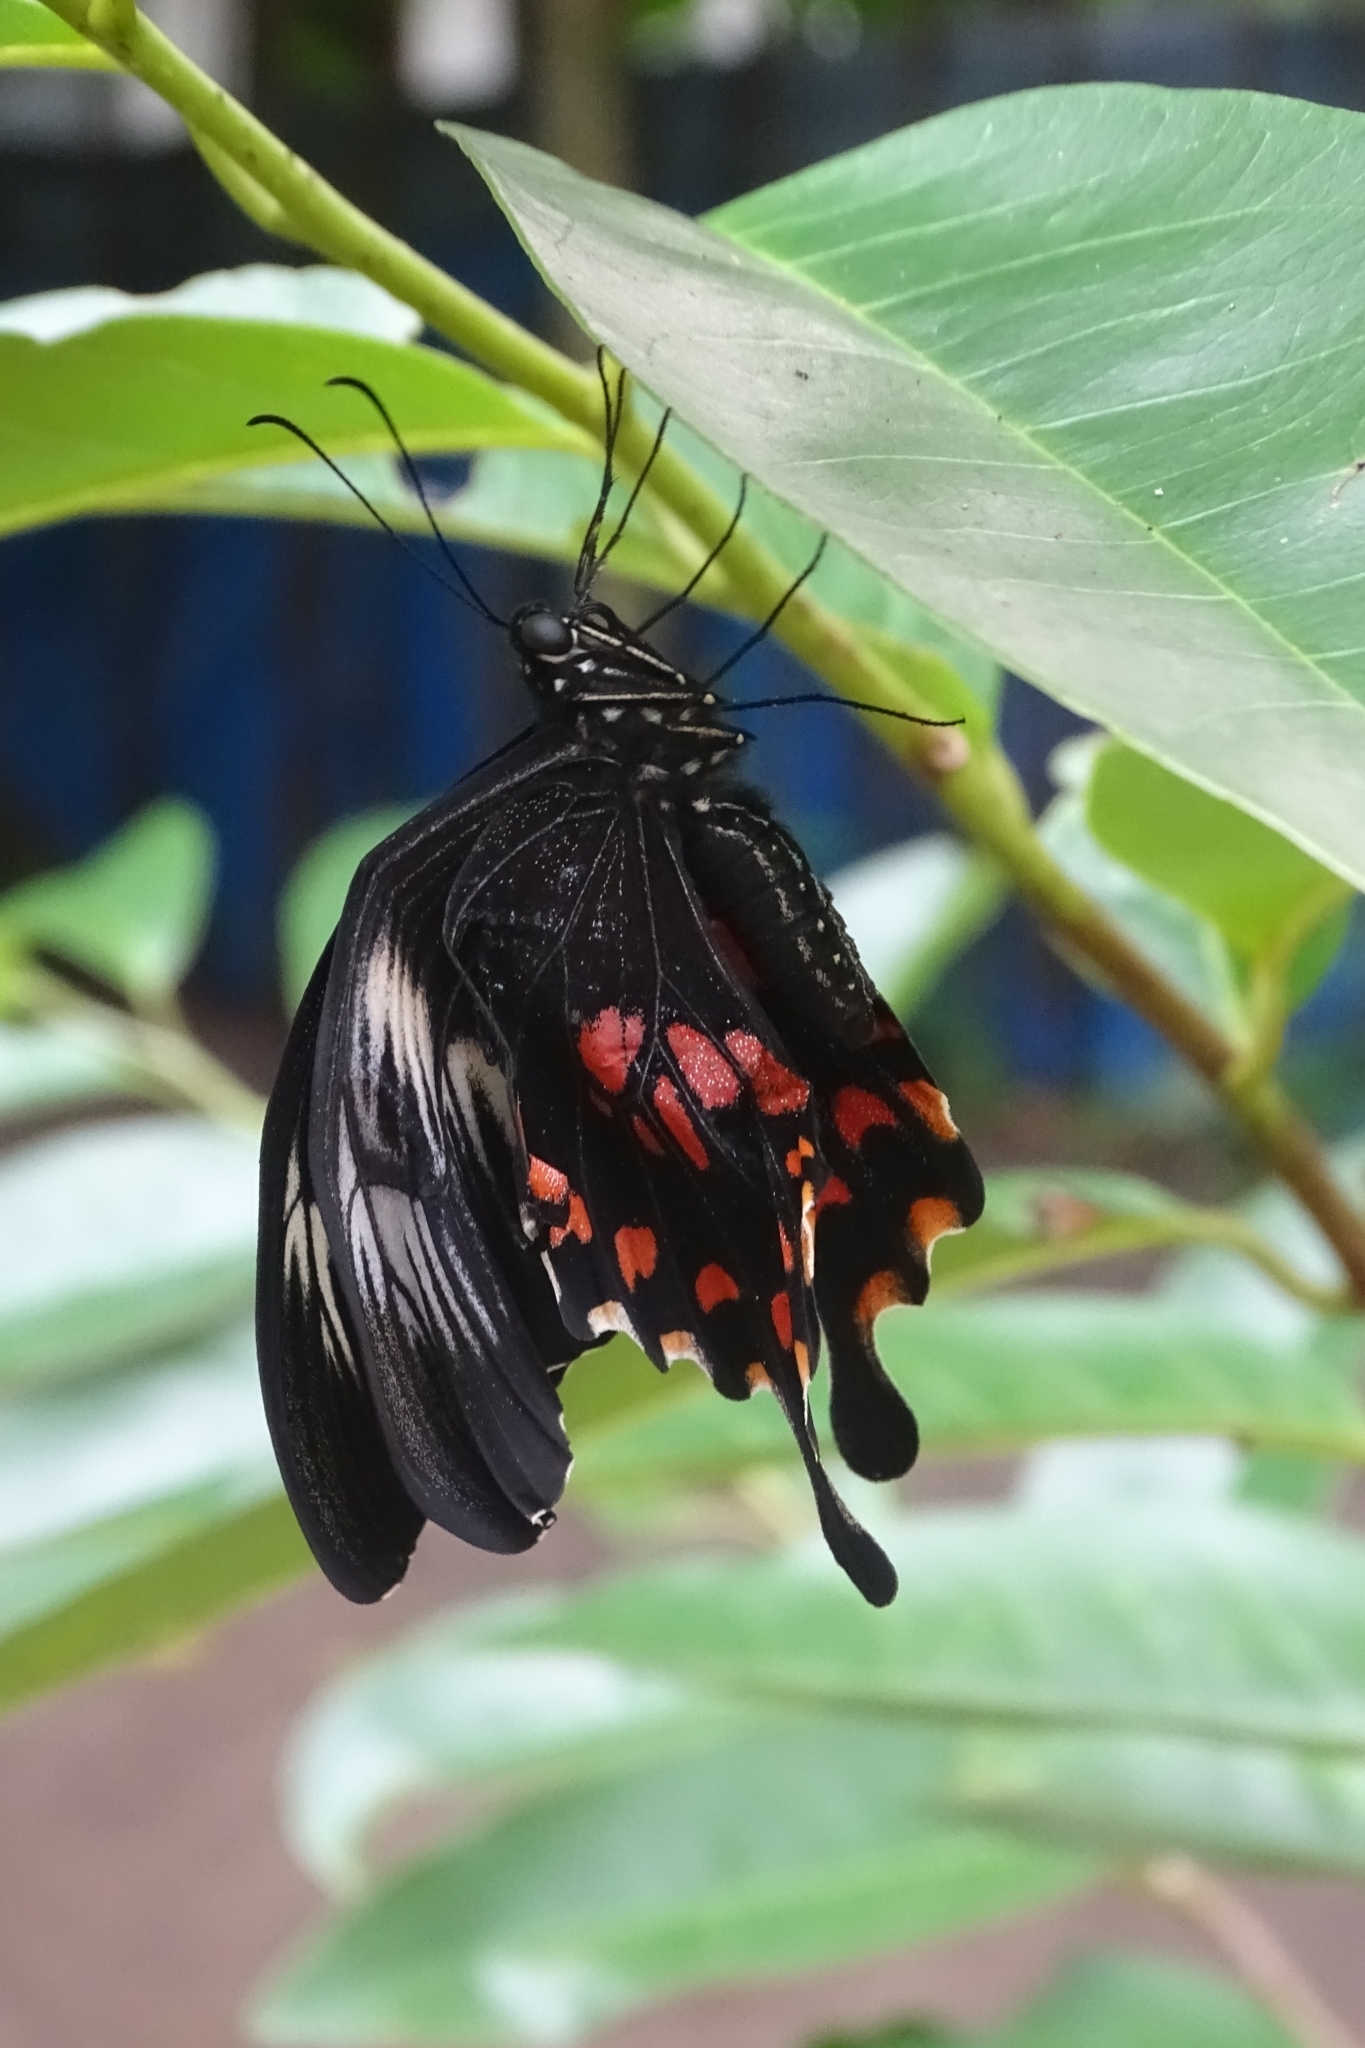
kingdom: Animalia
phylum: Arthropoda
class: Insecta
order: Lepidoptera
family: Papilionidae
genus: Papilio
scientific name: Papilio polytes
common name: Common mormon
